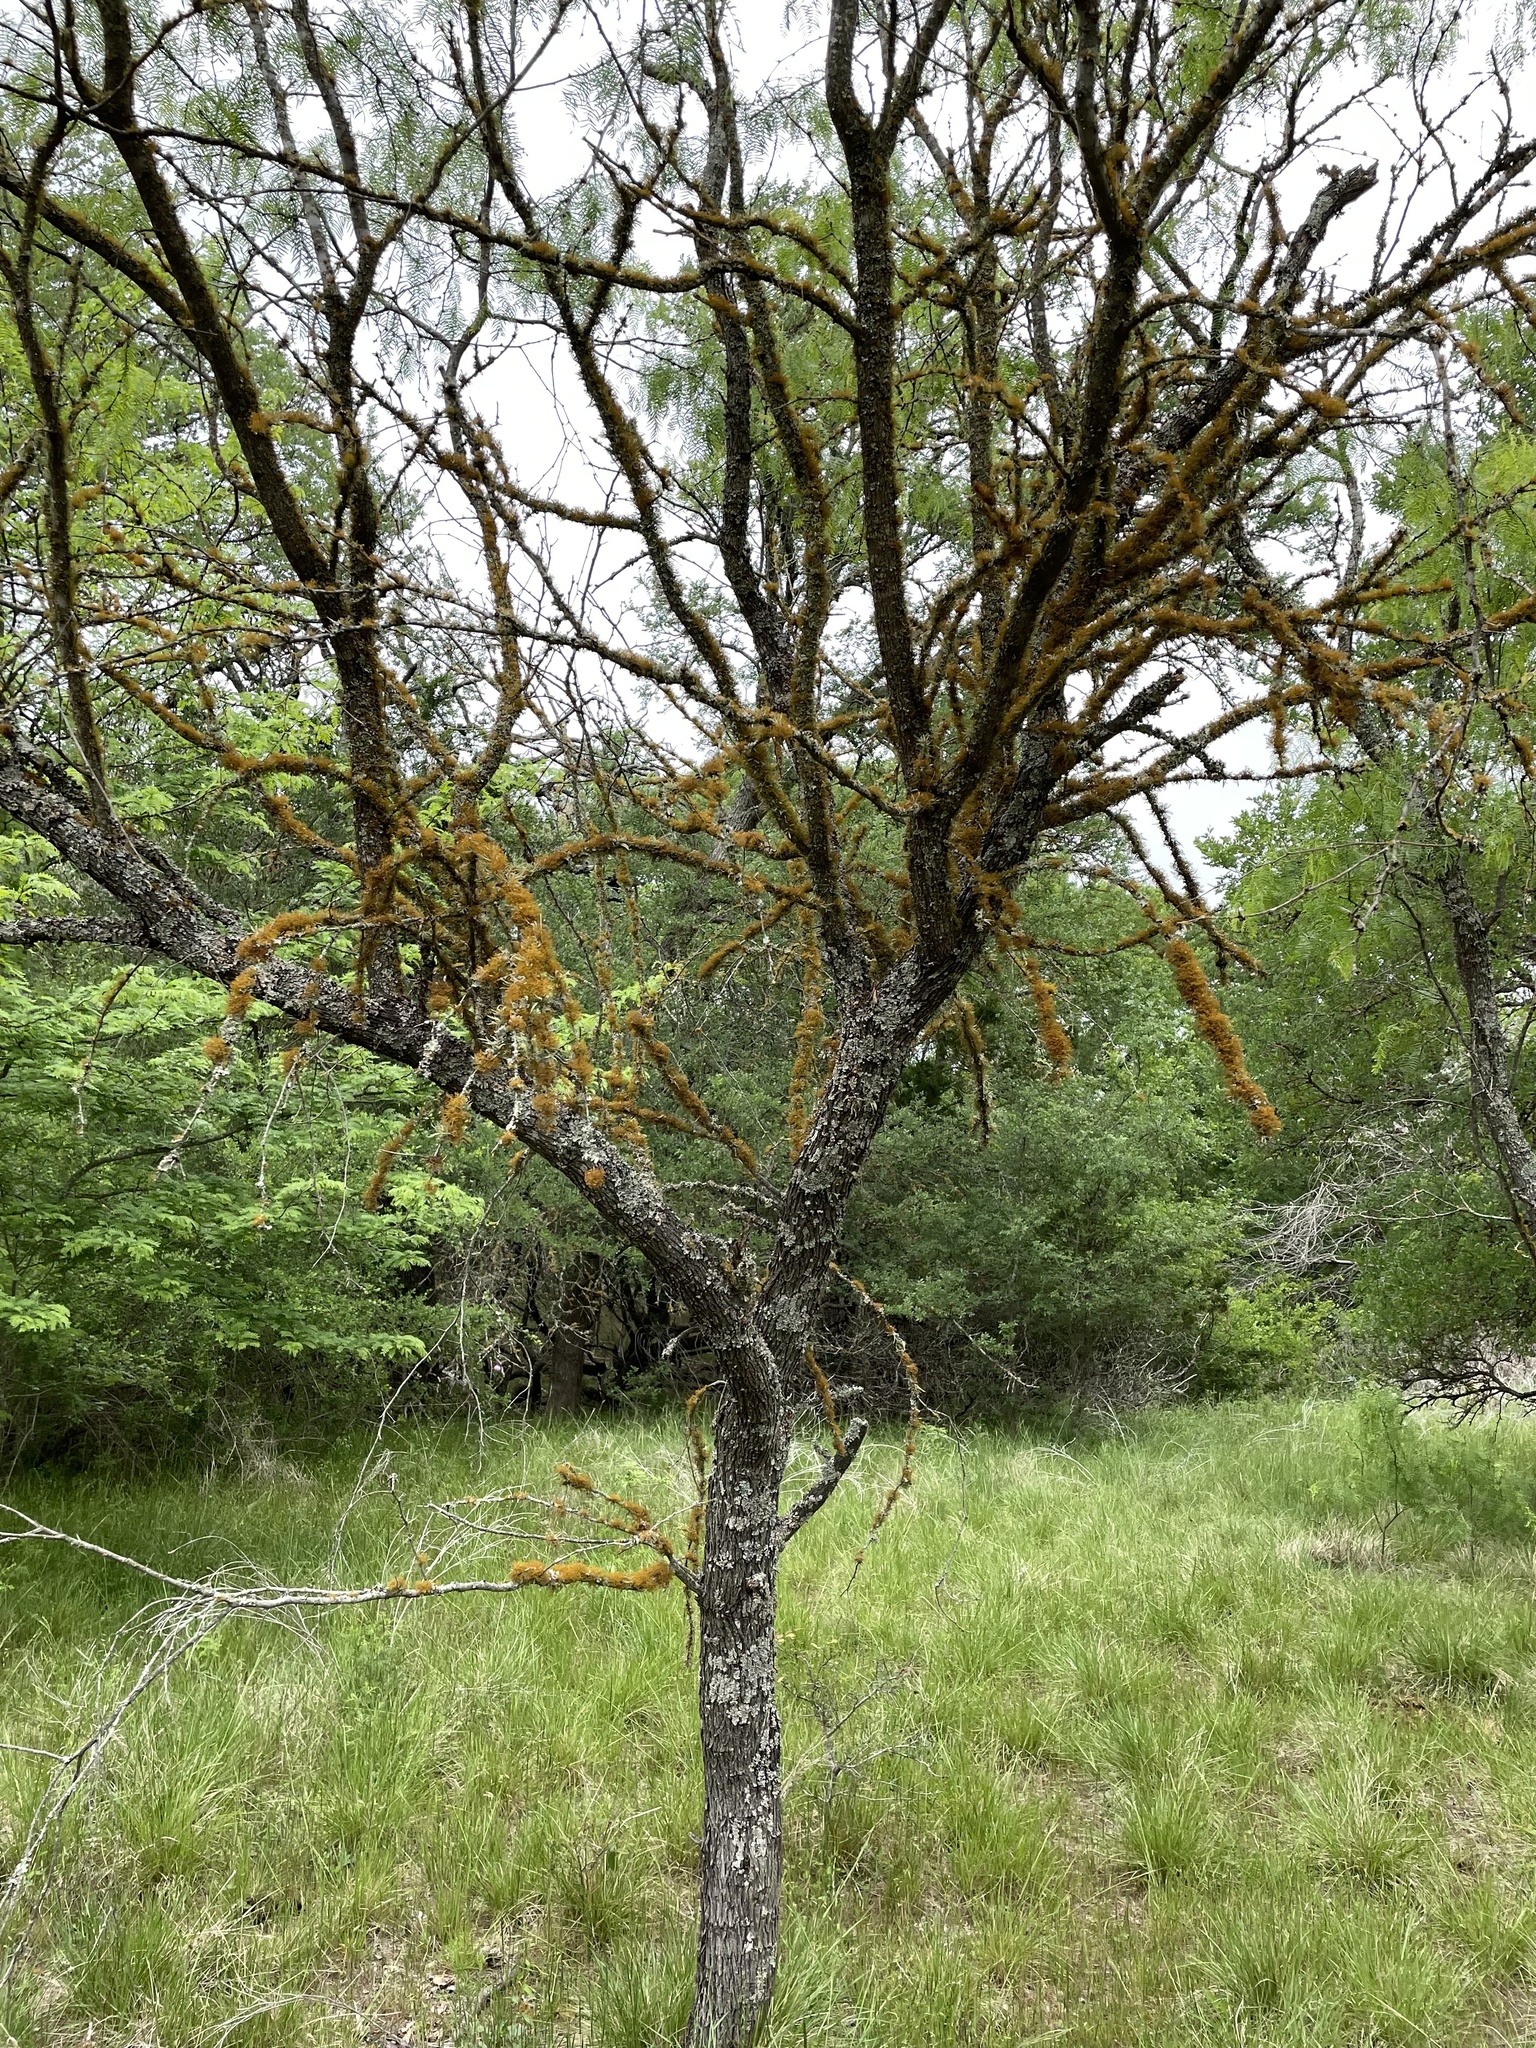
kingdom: Fungi
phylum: Ascomycota
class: Lecanoromycetes
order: Teloschistales
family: Teloschistaceae
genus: Teloschistes
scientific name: Teloschistes exilis
